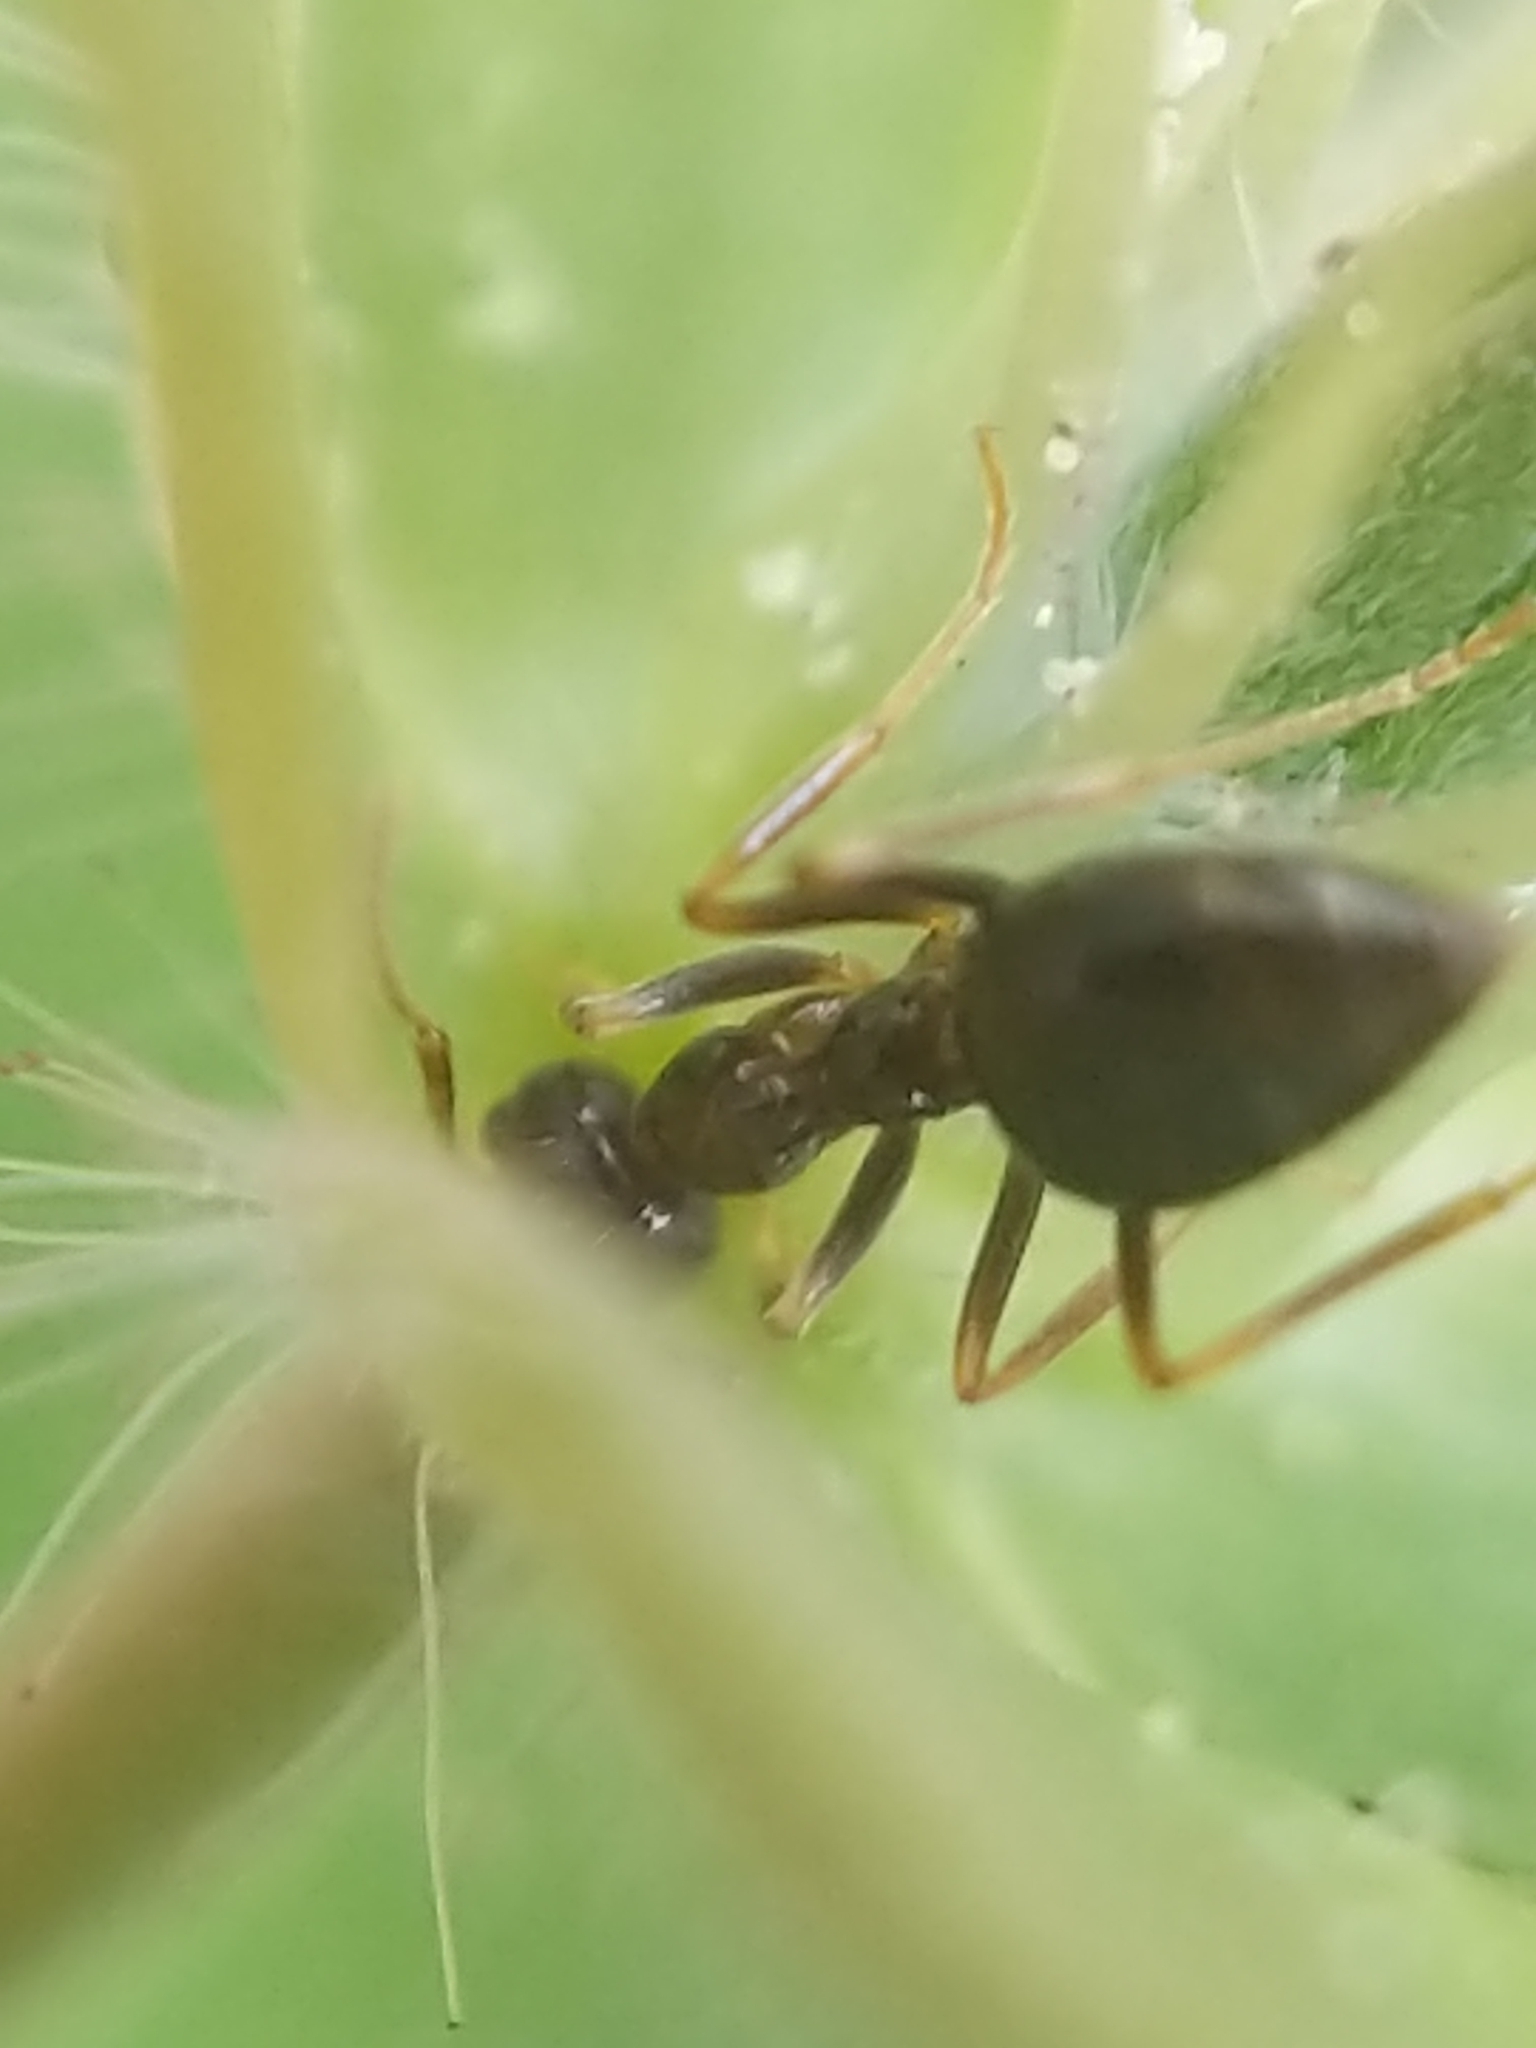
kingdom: Animalia
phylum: Arthropoda
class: Insecta
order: Hymenoptera
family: Formicidae
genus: Prenolepis
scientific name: Prenolepis imparis
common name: Small honey ant
